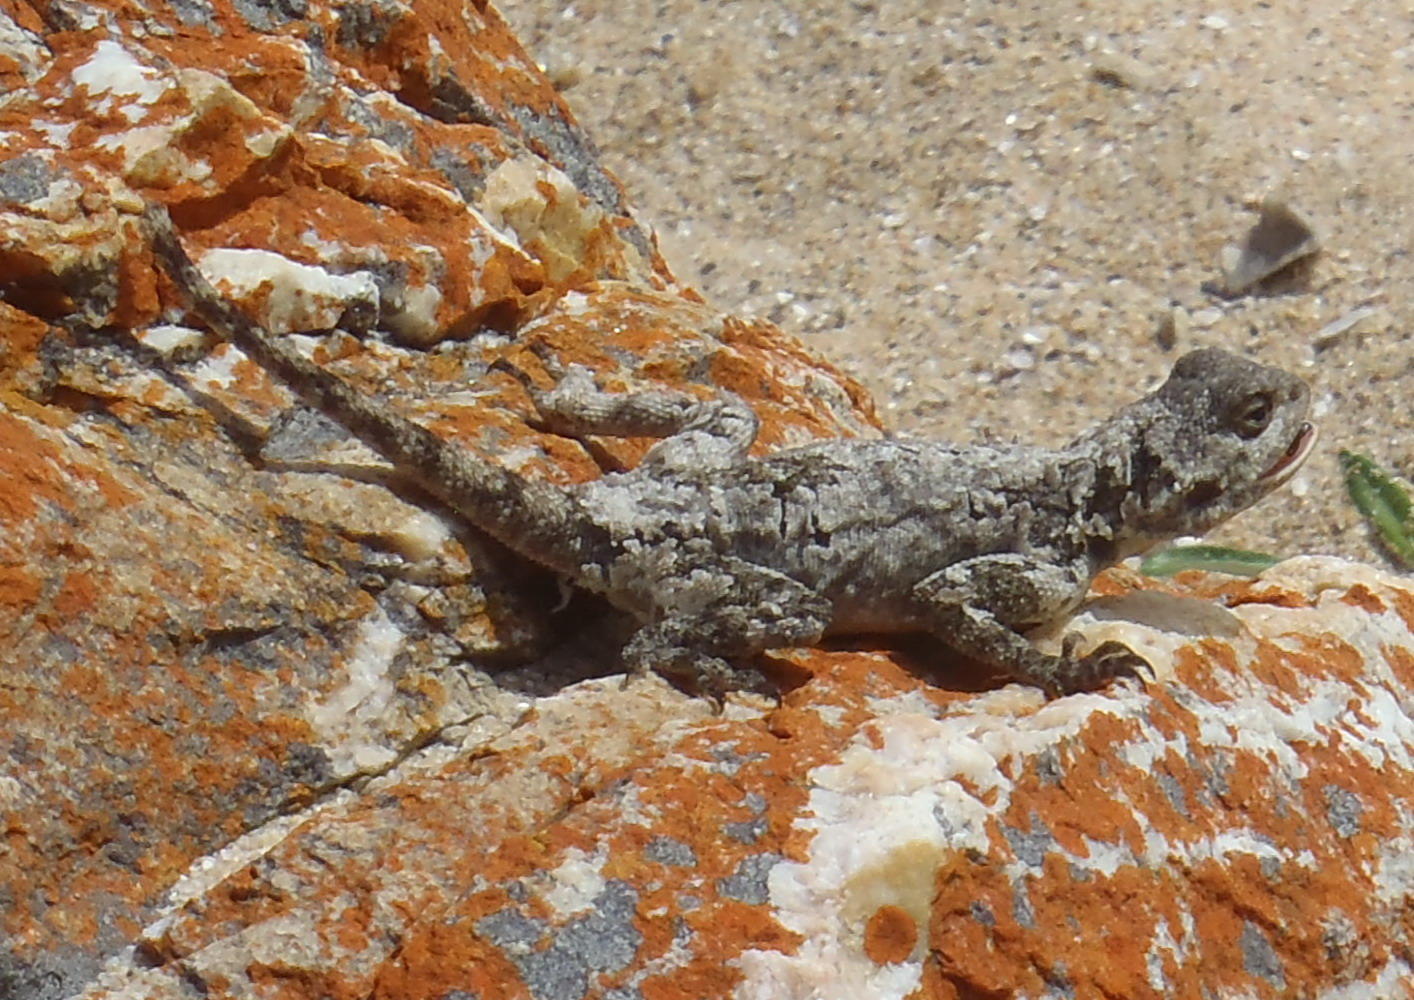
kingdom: Animalia
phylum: Chordata
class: Squamata
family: Agamidae
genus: Agama
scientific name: Agama atra
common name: Southern african rock agama
